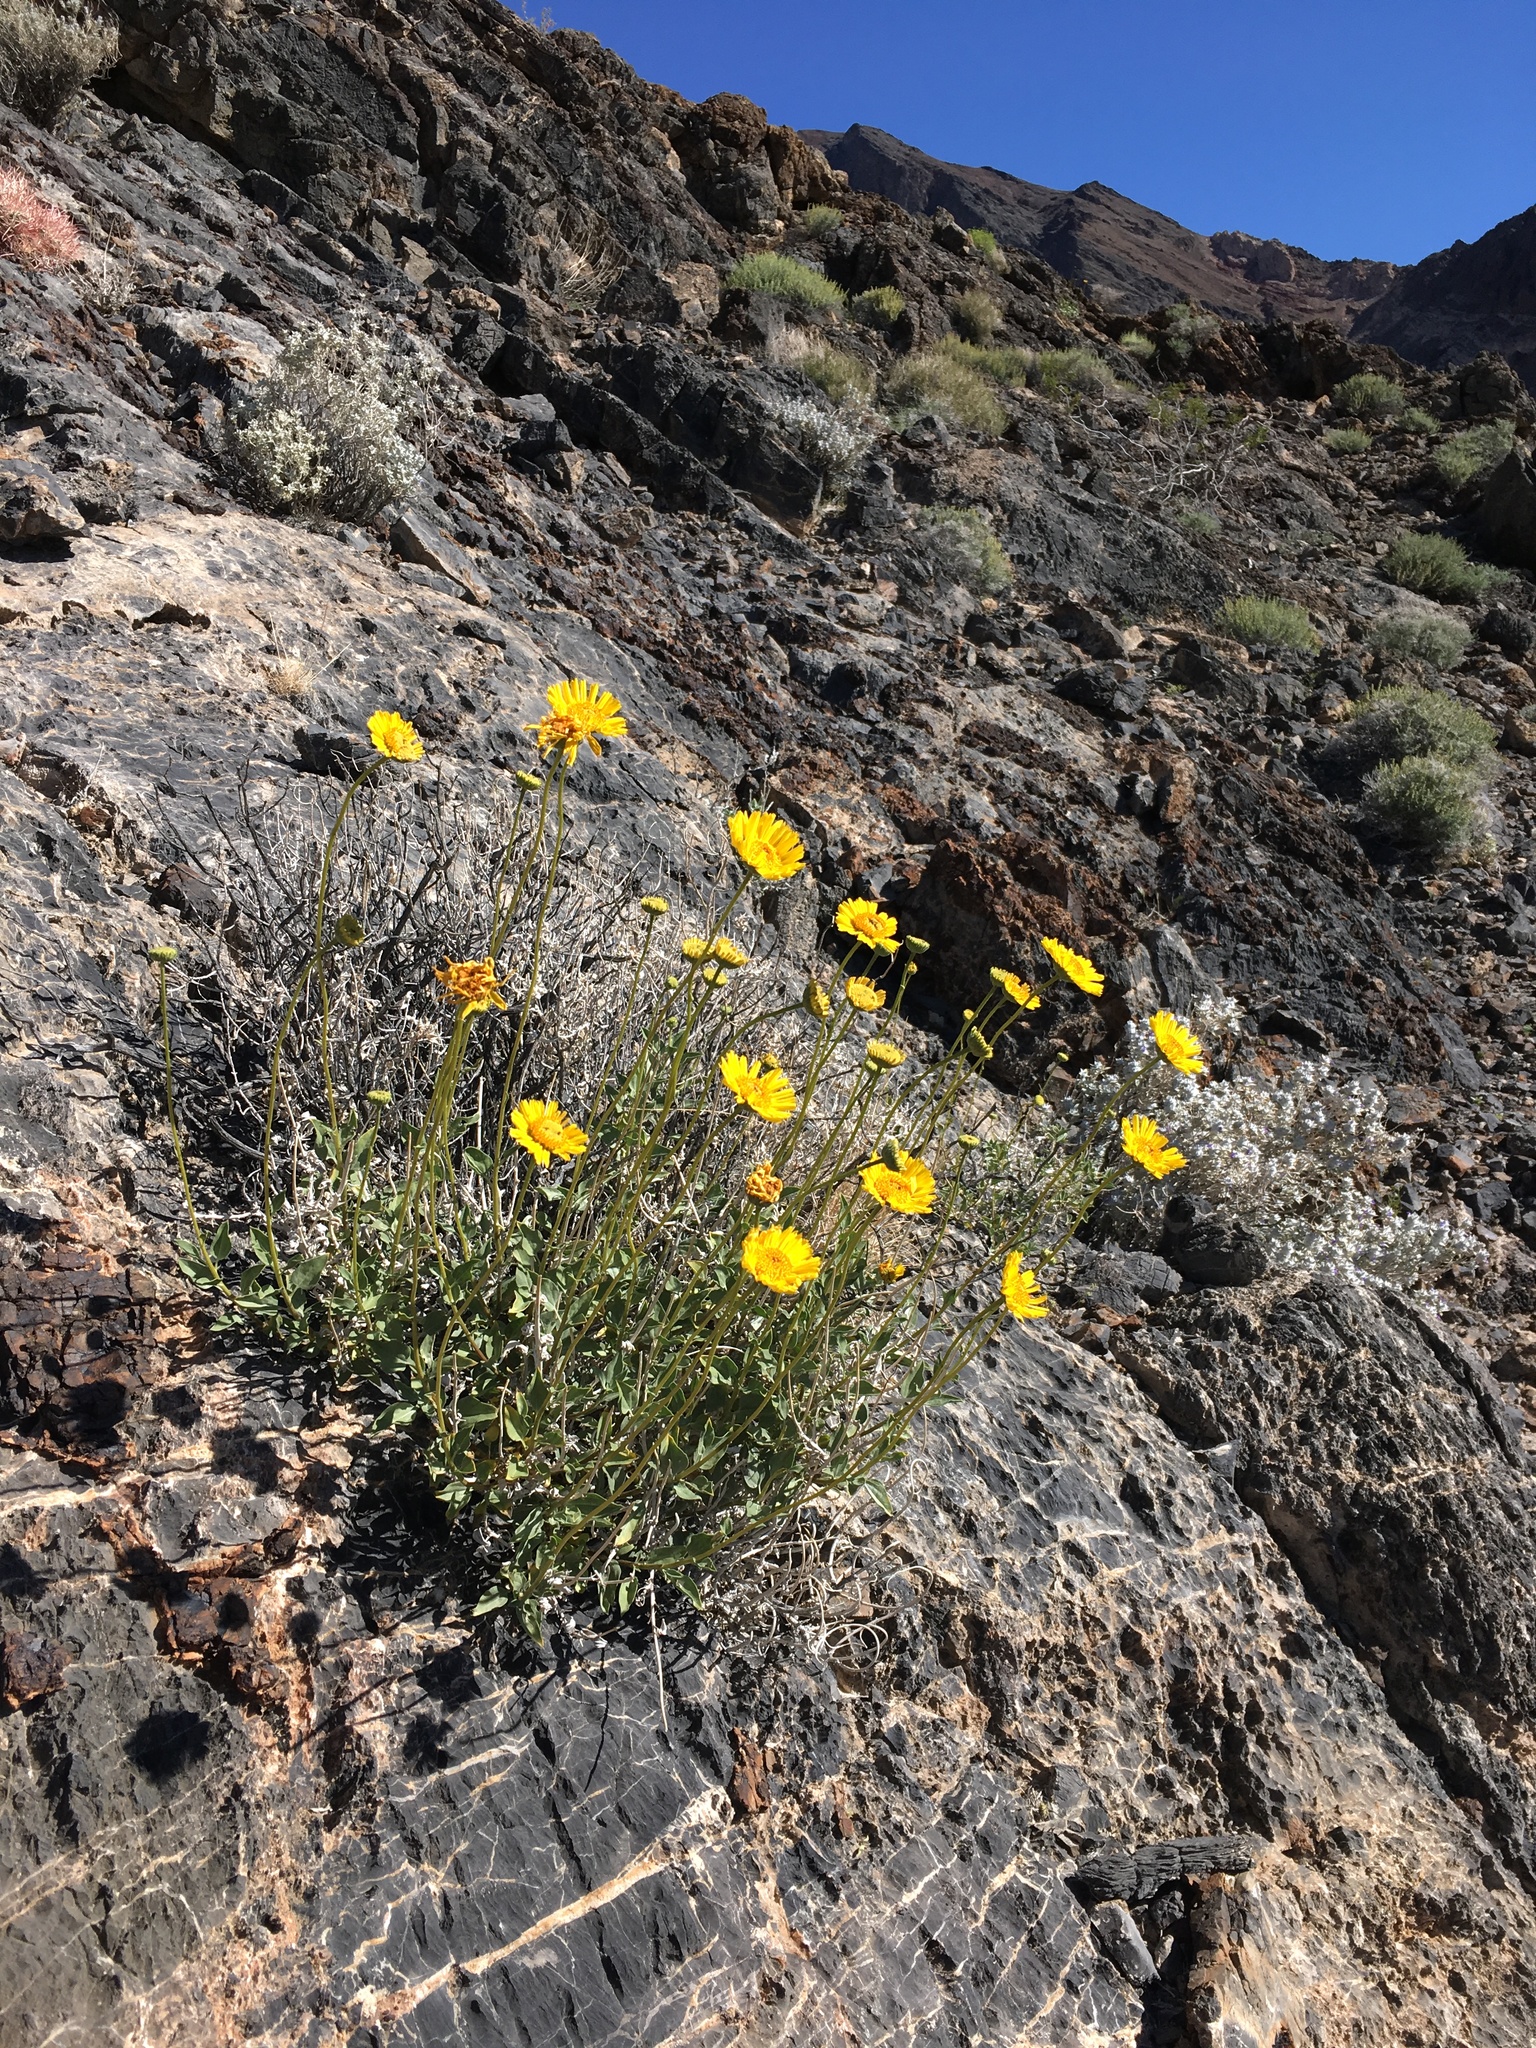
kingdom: Plantae
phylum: Tracheophyta
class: Magnoliopsida
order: Asterales
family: Asteraceae
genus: Encelia
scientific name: Encelia actoni
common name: Acton encelia
